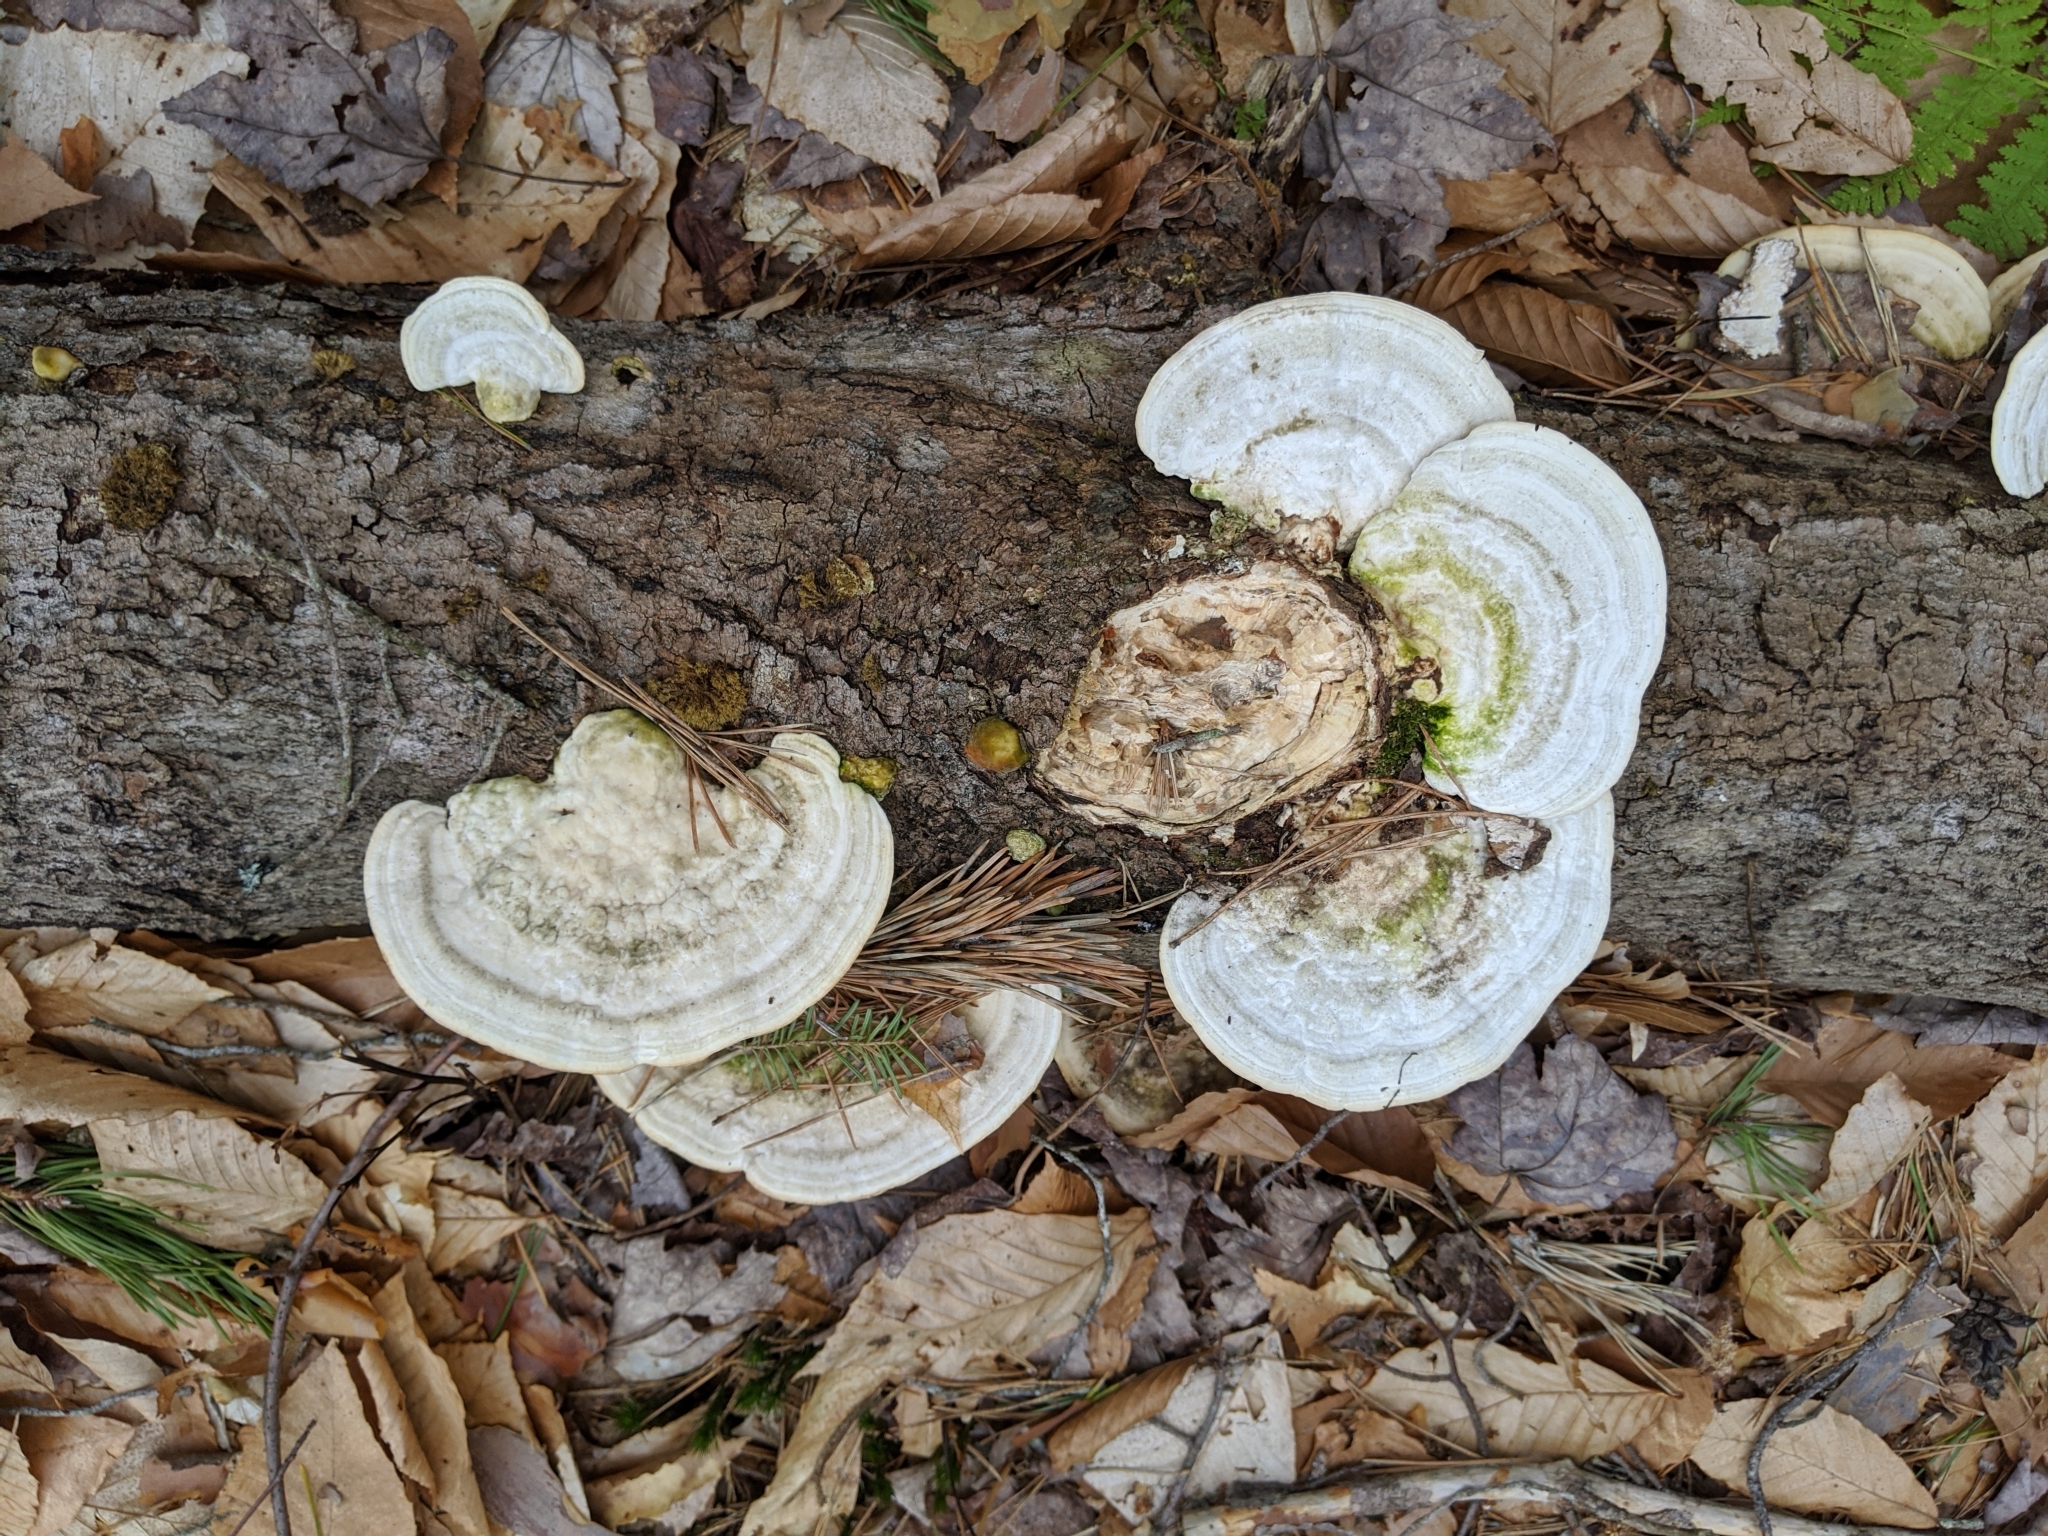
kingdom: Fungi
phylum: Basidiomycota
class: Agaricomycetes
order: Polyporales
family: Polyporaceae
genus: Trametes
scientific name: Trametes gibbosa
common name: Lumpy bracket
